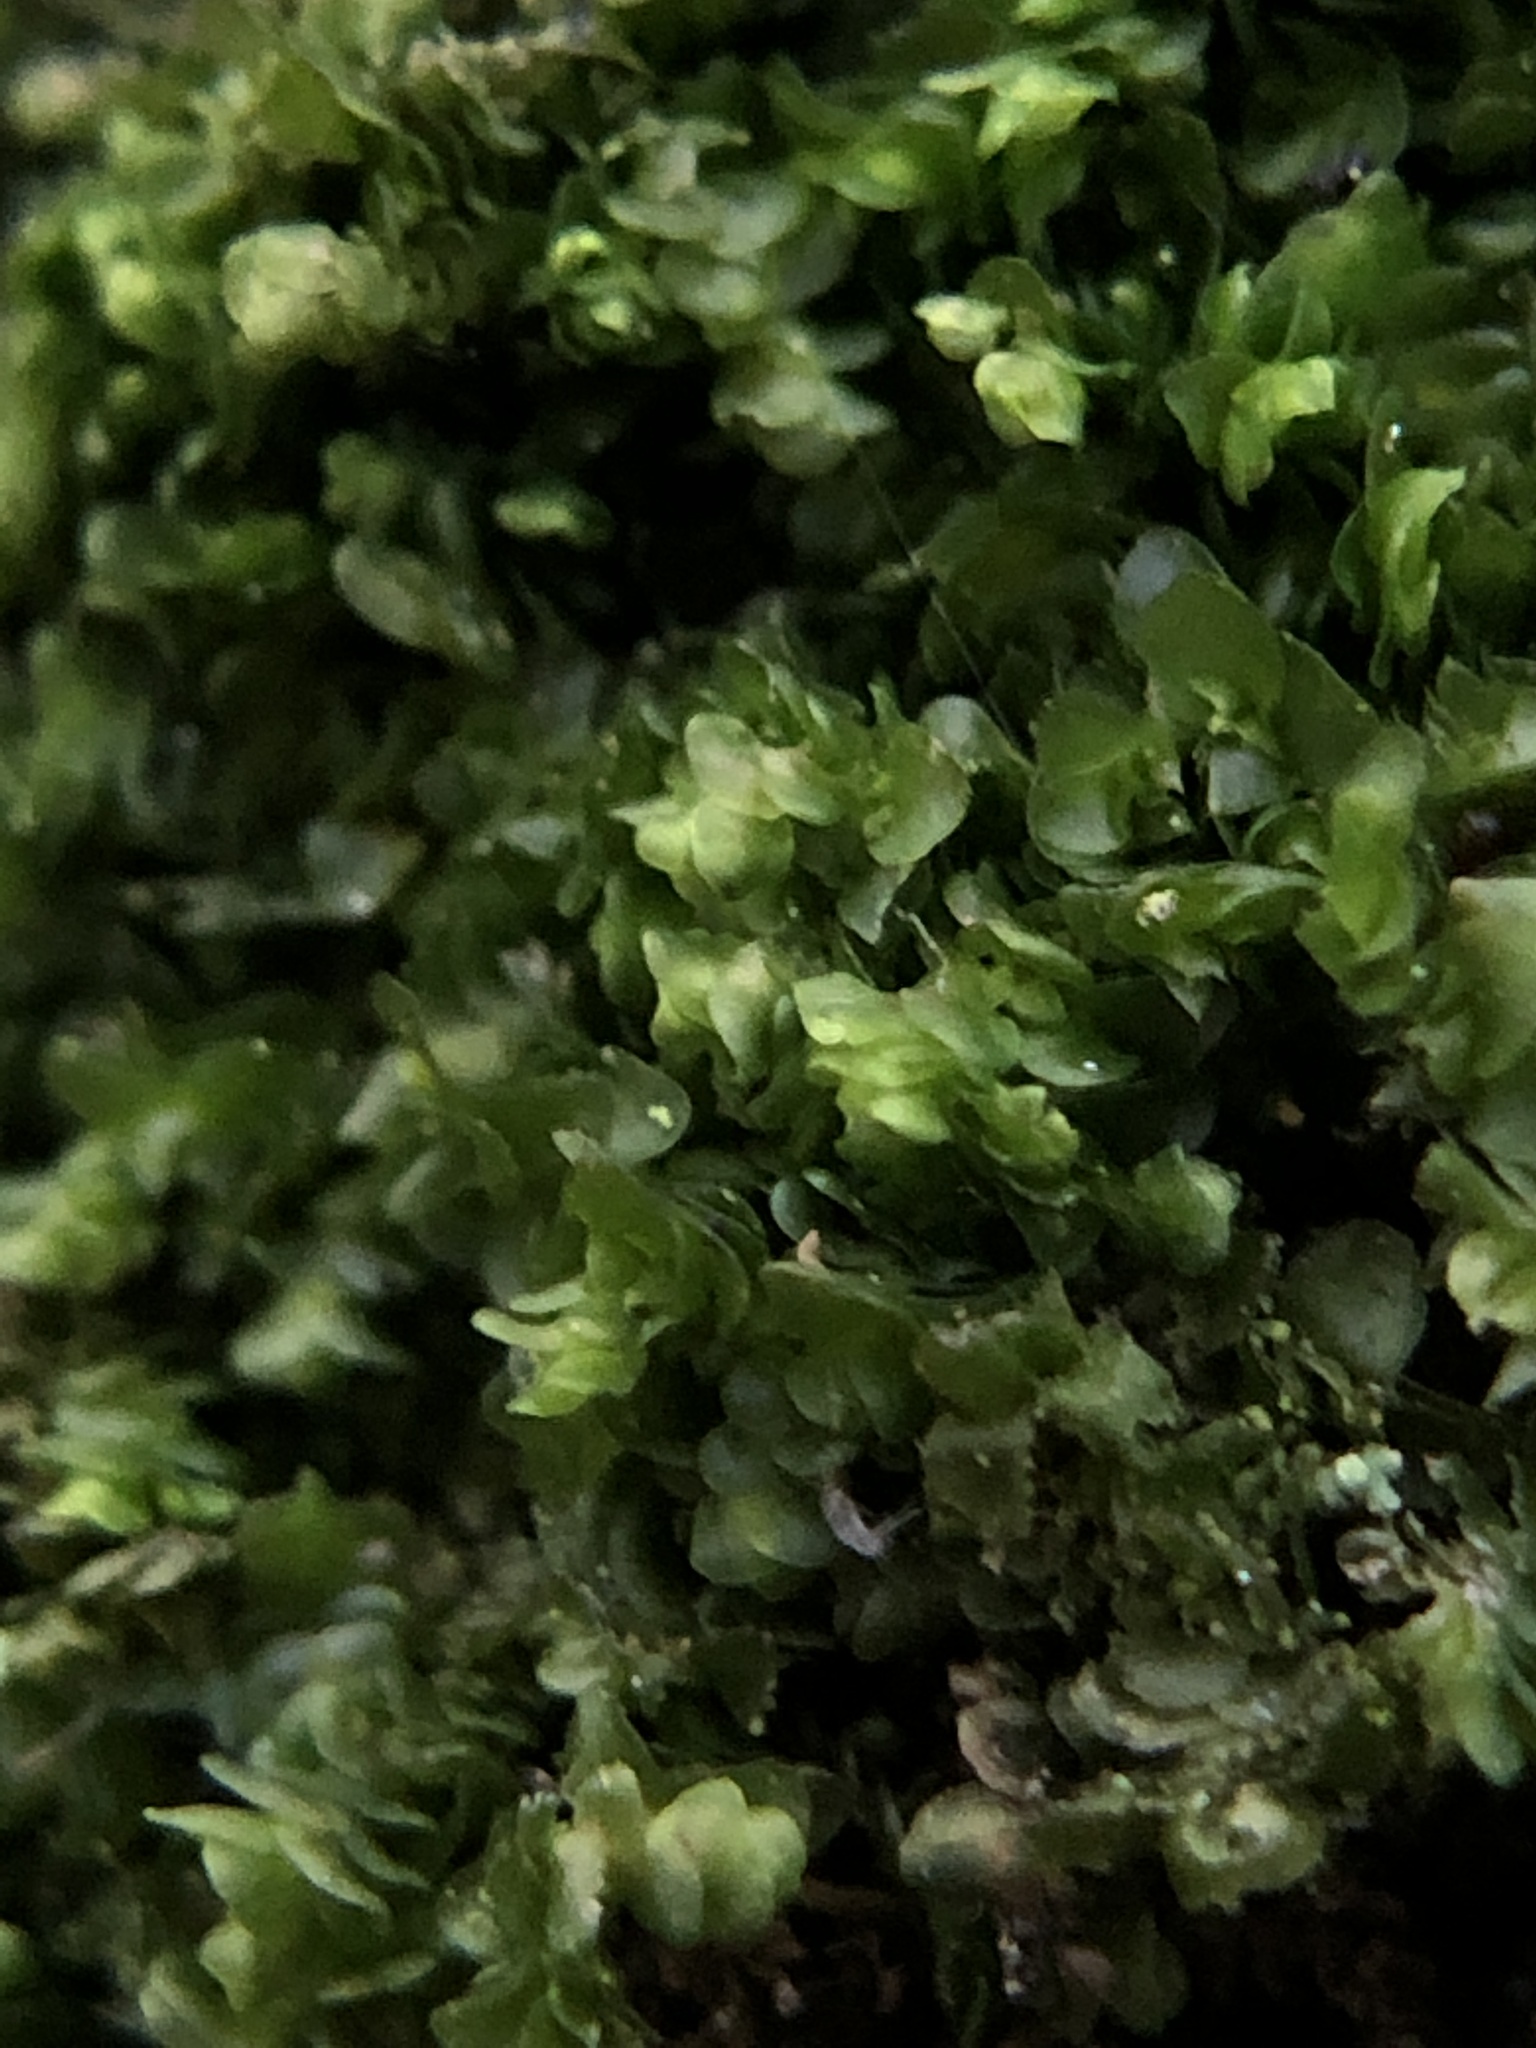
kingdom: Plantae
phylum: Marchantiophyta
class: Jungermanniopsida
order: Porellales
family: Frullaniaceae
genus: Frullania
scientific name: Frullania dilatata
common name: Dilated scalewort
